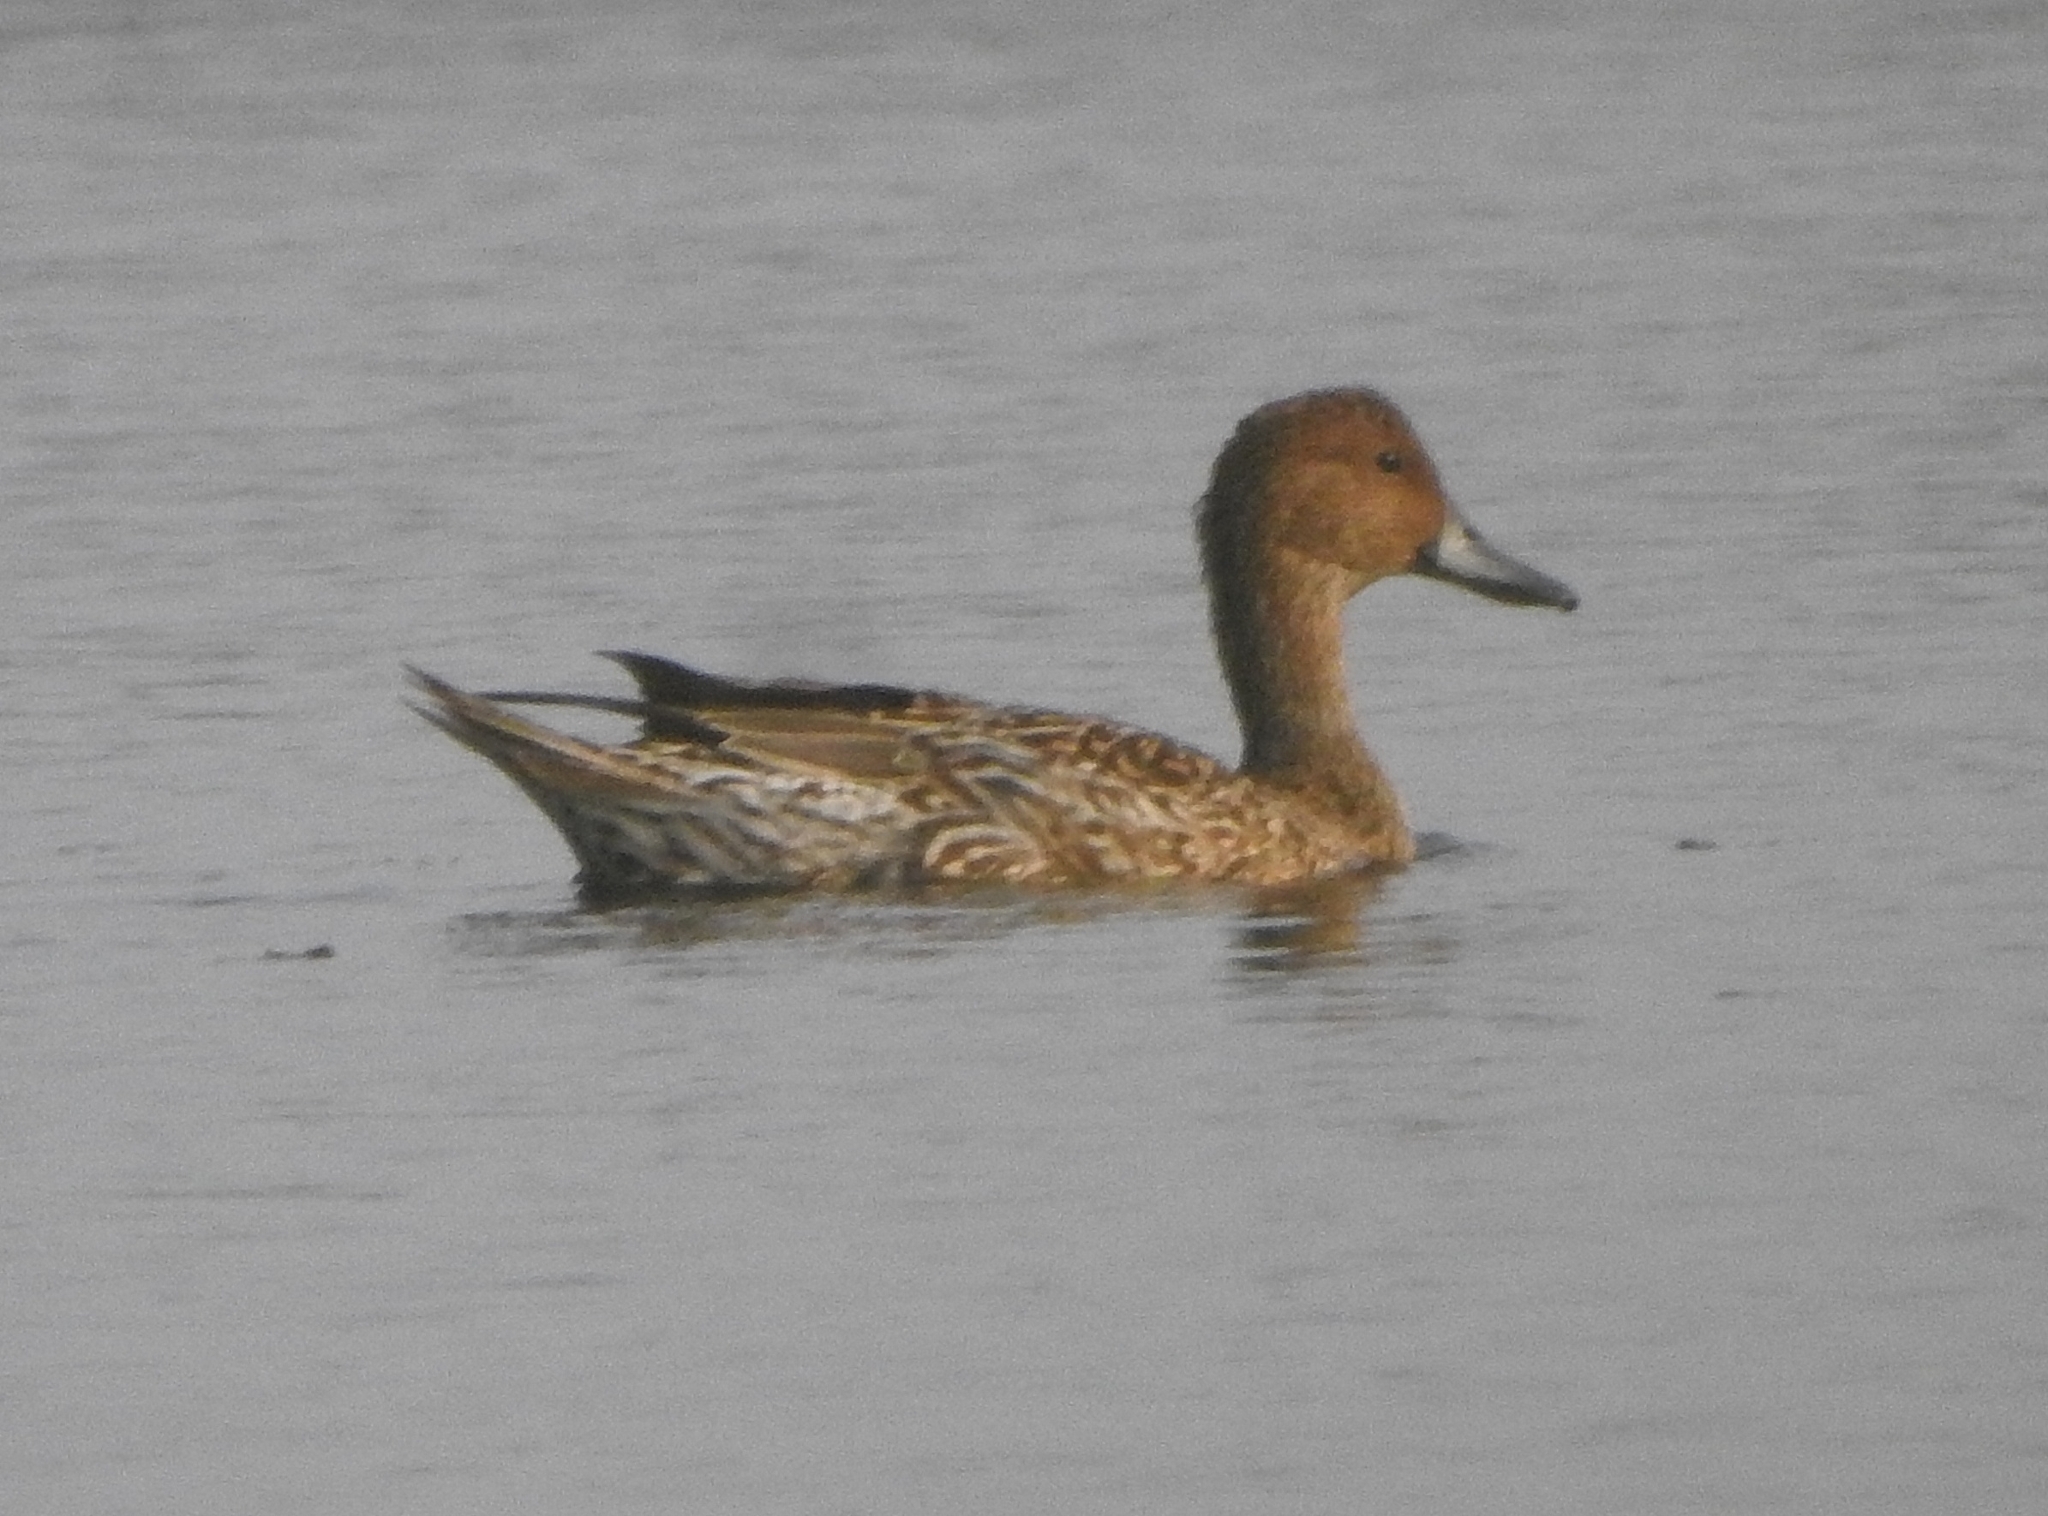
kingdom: Animalia
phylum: Chordata
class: Aves
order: Anseriformes
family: Anatidae
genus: Anas
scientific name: Anas acuta
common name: Northern pintail
